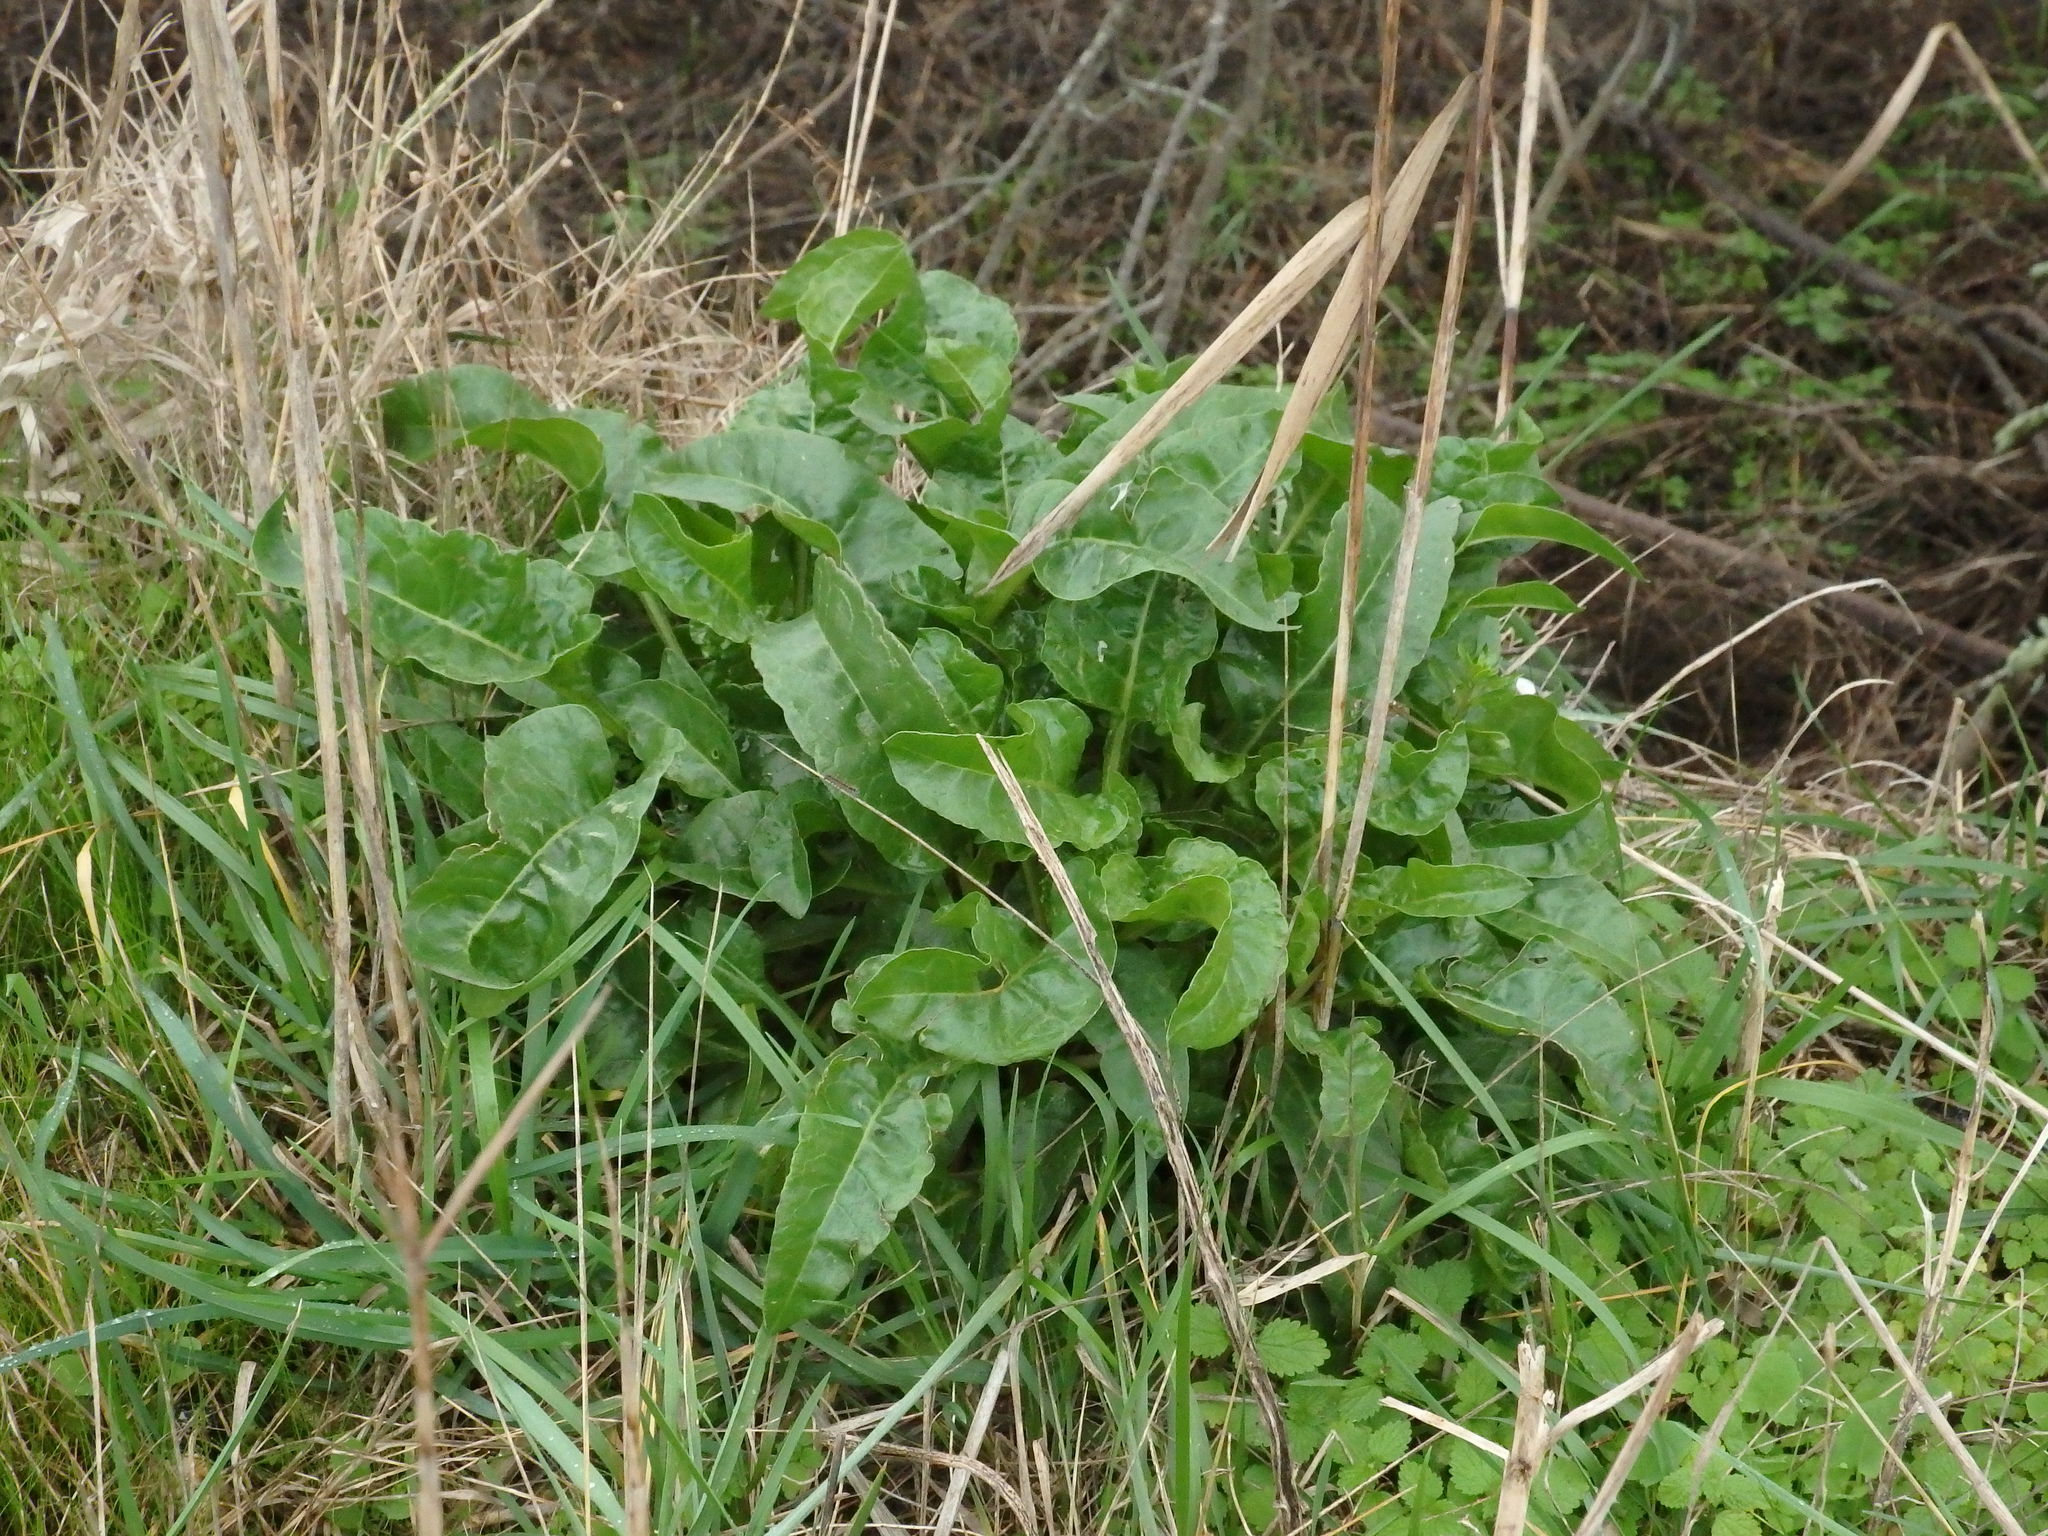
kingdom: Plantae
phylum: Tracheophyta
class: Magnoliopsida
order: Caryophyllales
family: Amaranthaceae
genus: Beta
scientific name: Beta vulgaris
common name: Beet
